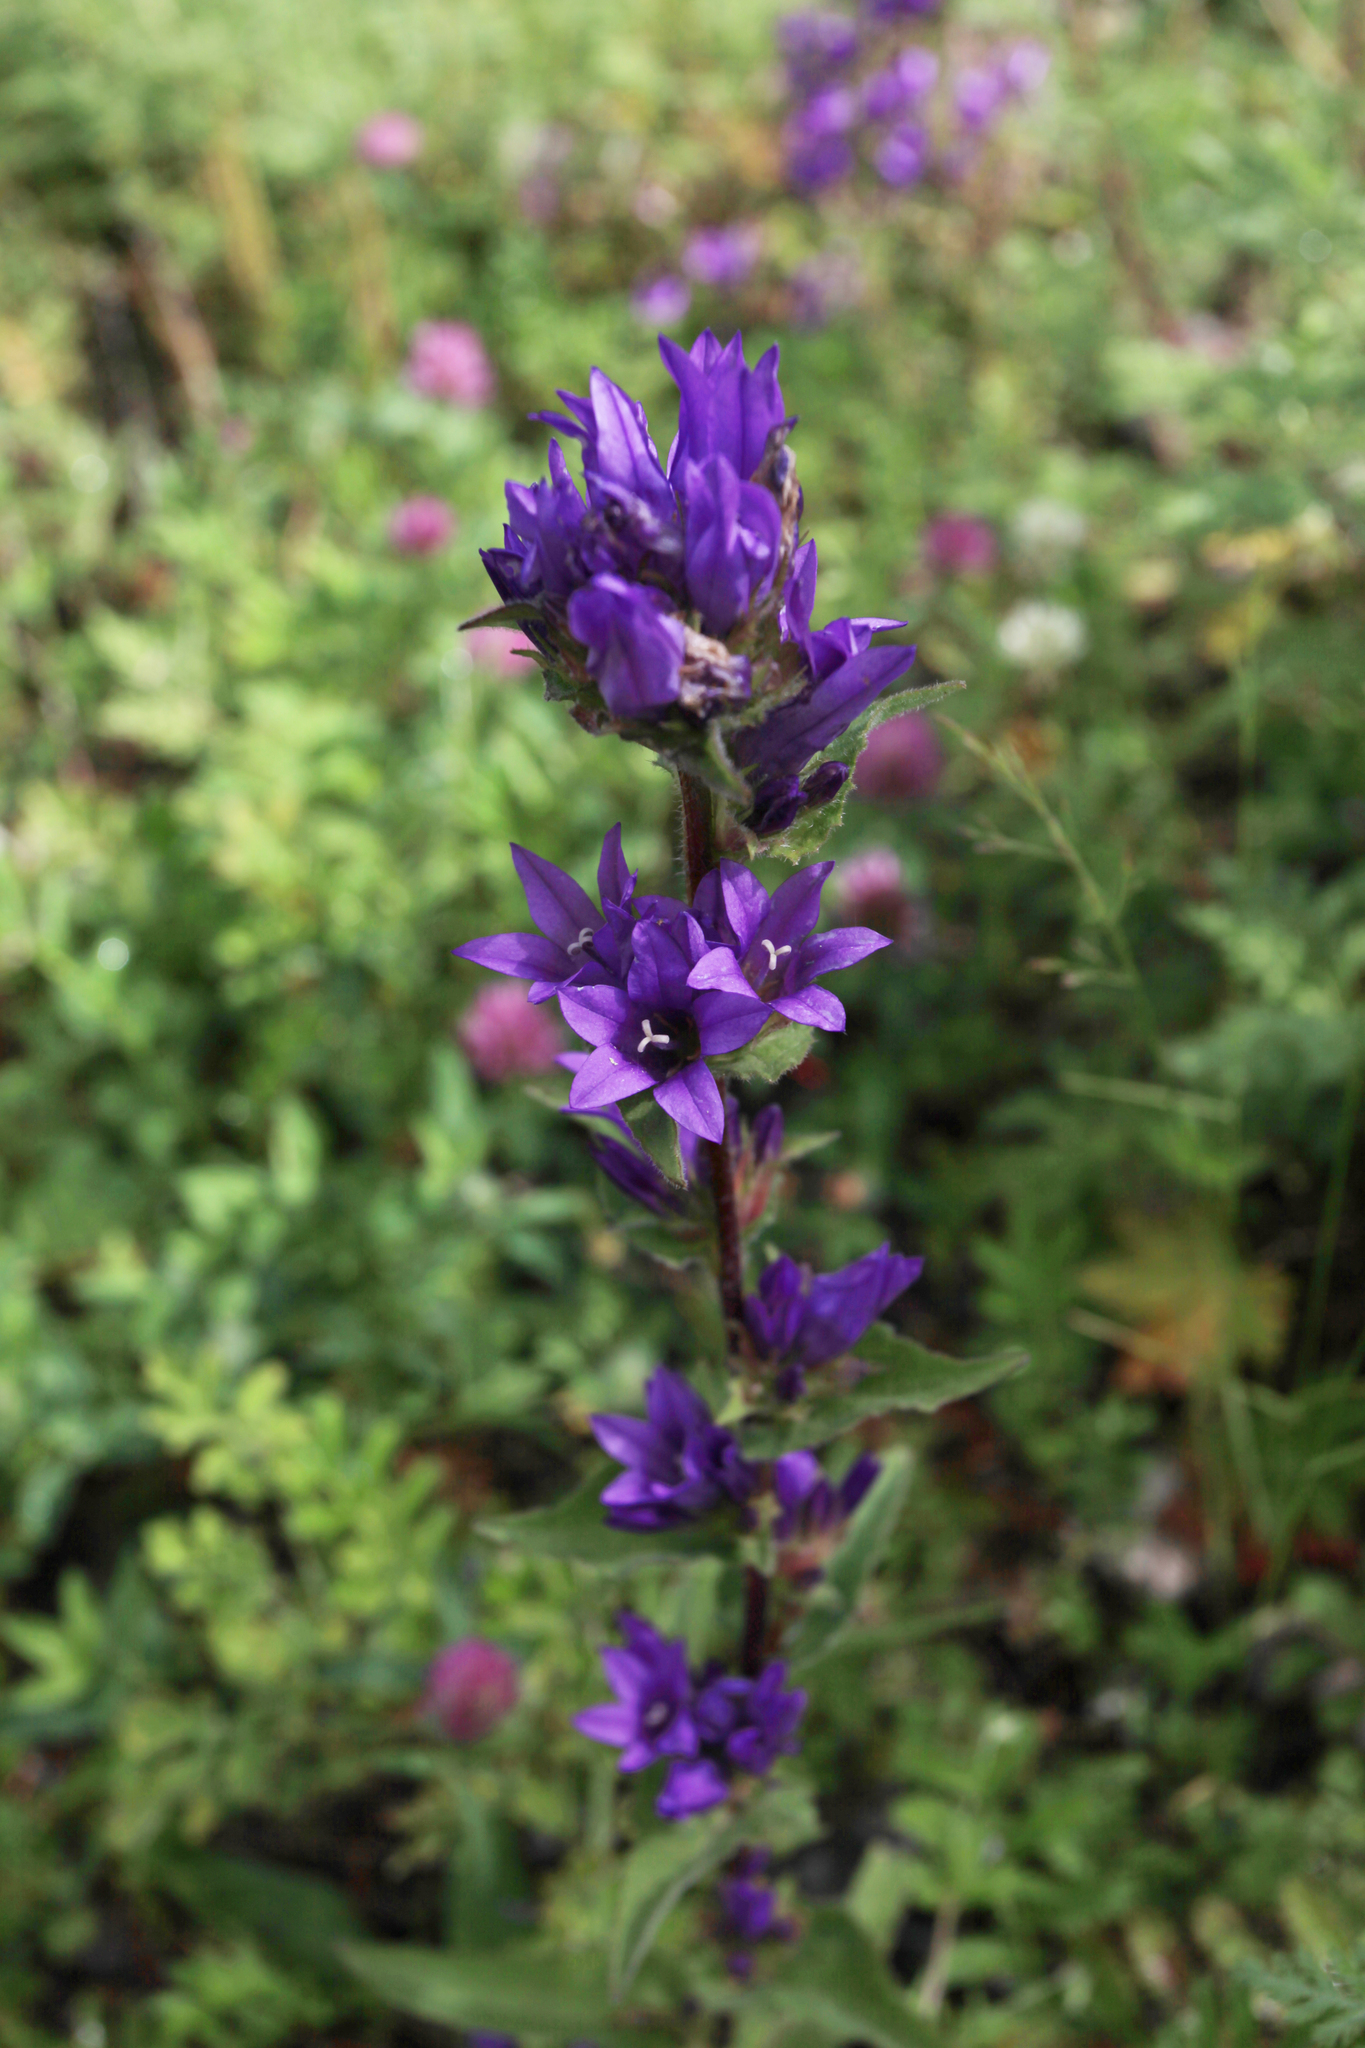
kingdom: Plantae
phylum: Tracheophyta
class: Magnoliopsida
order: Asterales
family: Campanulaceae
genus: Campanula
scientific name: Campanula glomerata
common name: Clustered bellflower
